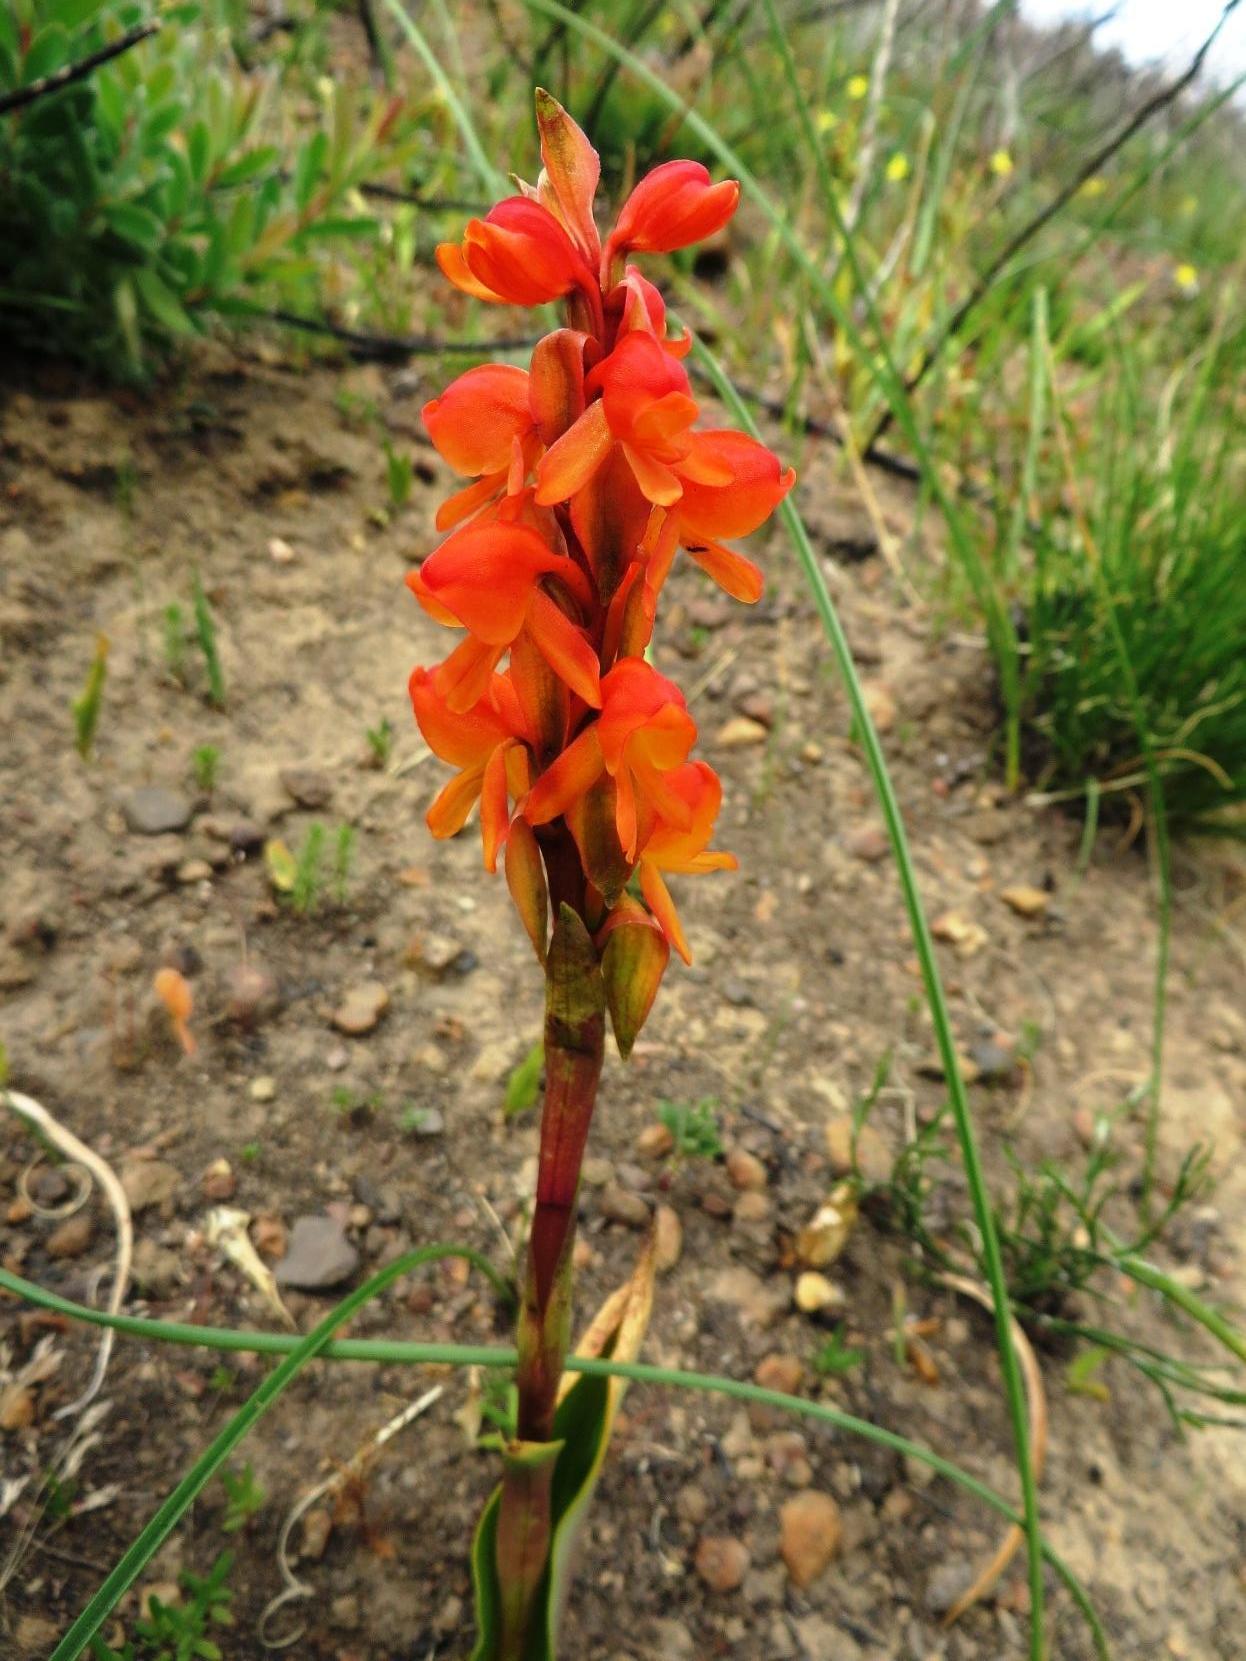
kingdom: Plantae
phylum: Tracheophyta
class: Liliopsida
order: Asparagales
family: Orchidaceae
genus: Satyrium
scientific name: Satyrium coriifolium
